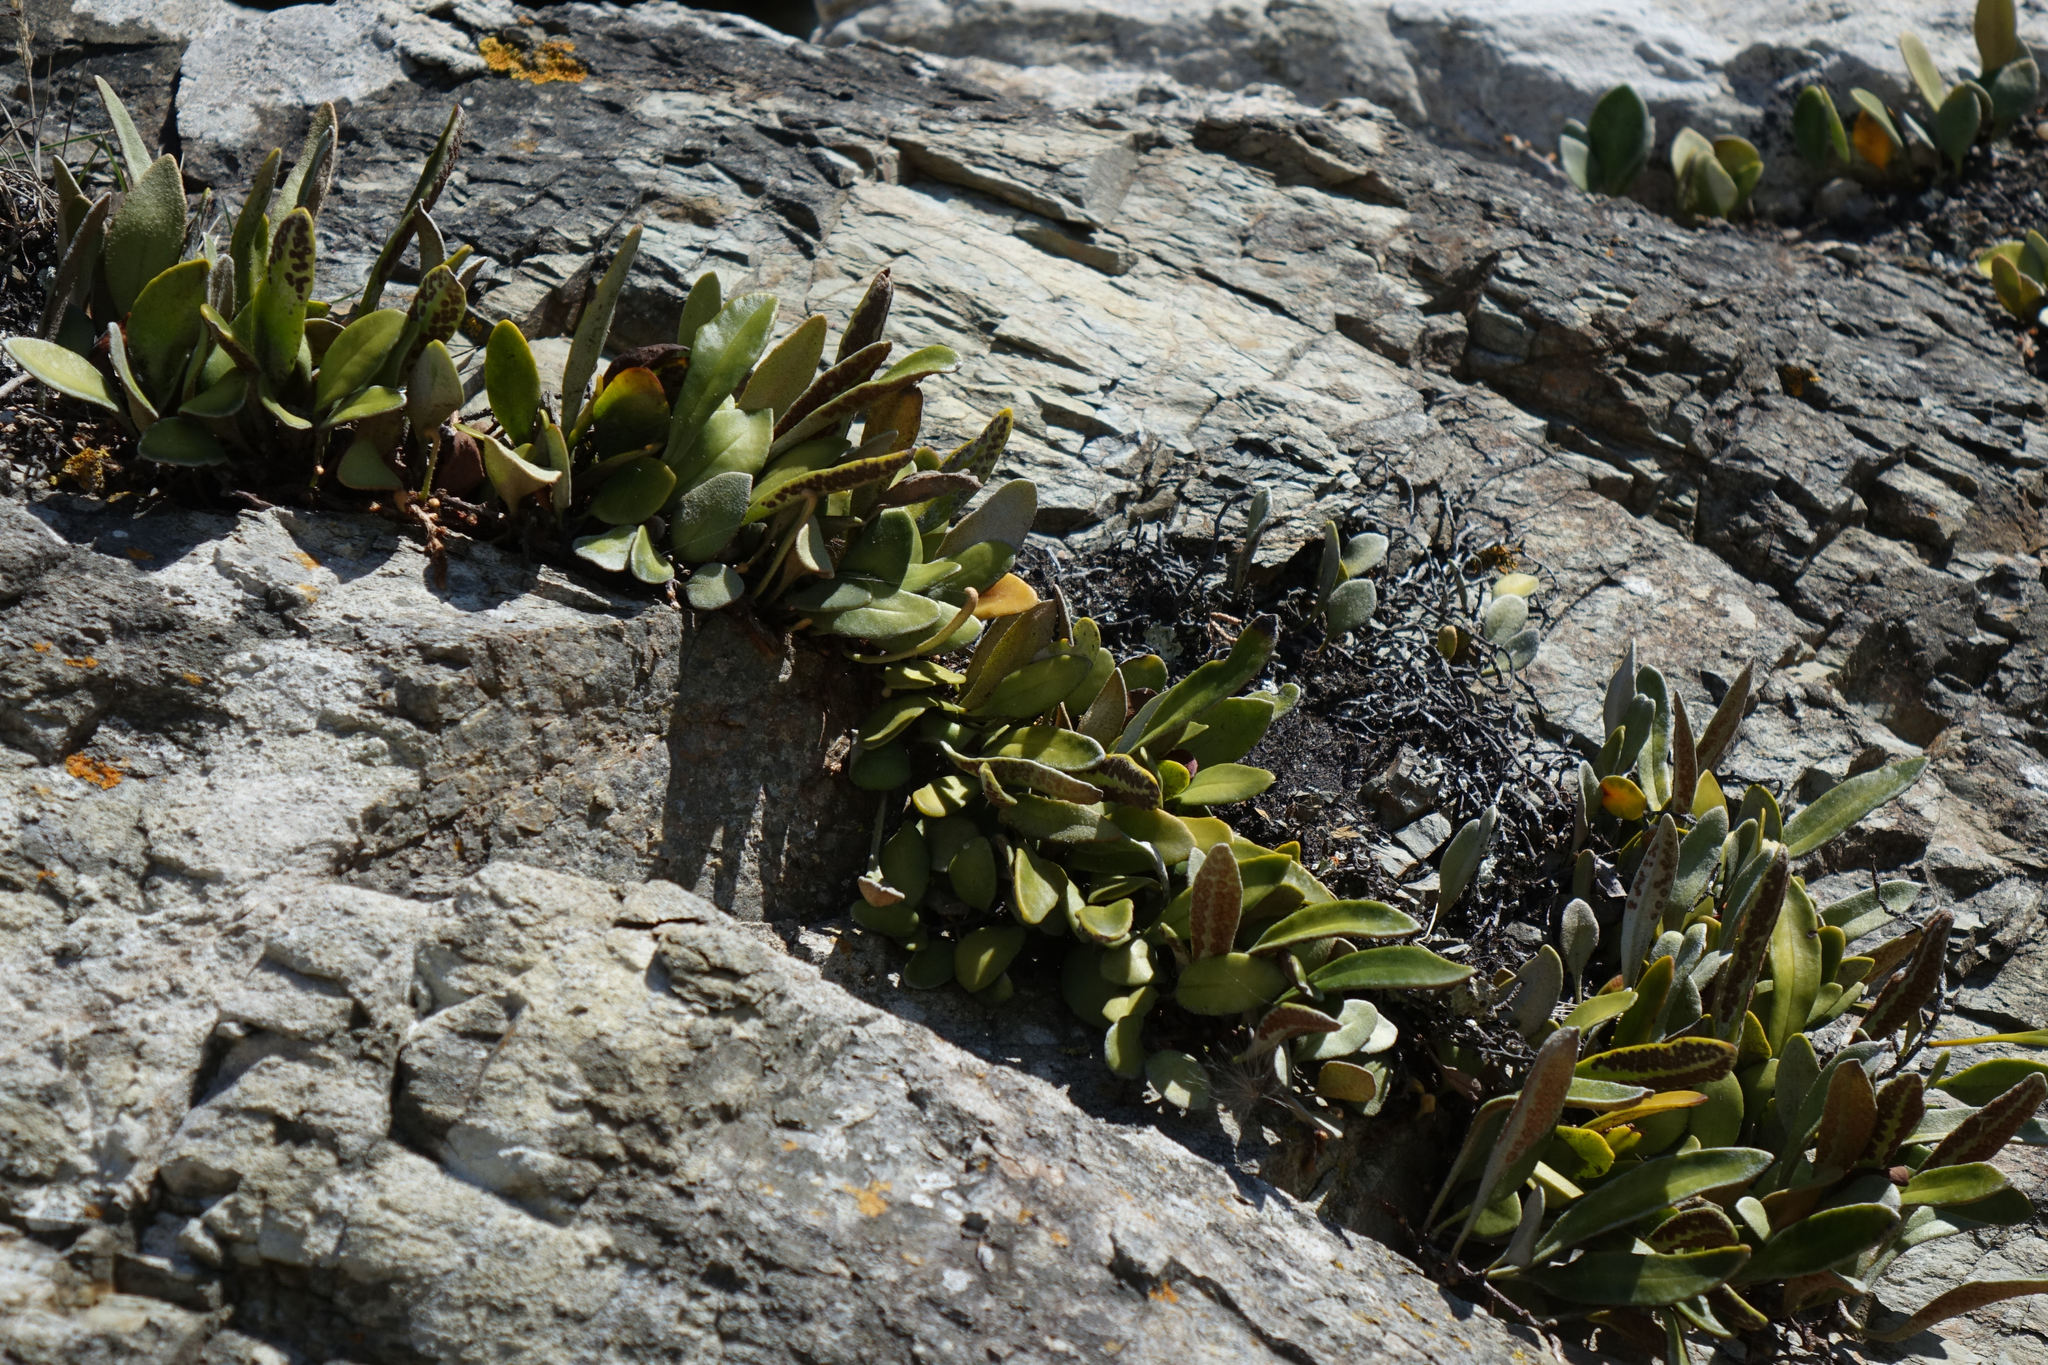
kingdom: Plantae
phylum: Tracheophyta
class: Polypodiopsida
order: Polypodiales
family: Polypodiaceae
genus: Pyrrosia
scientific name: Pyrrosia eleagnifolia
